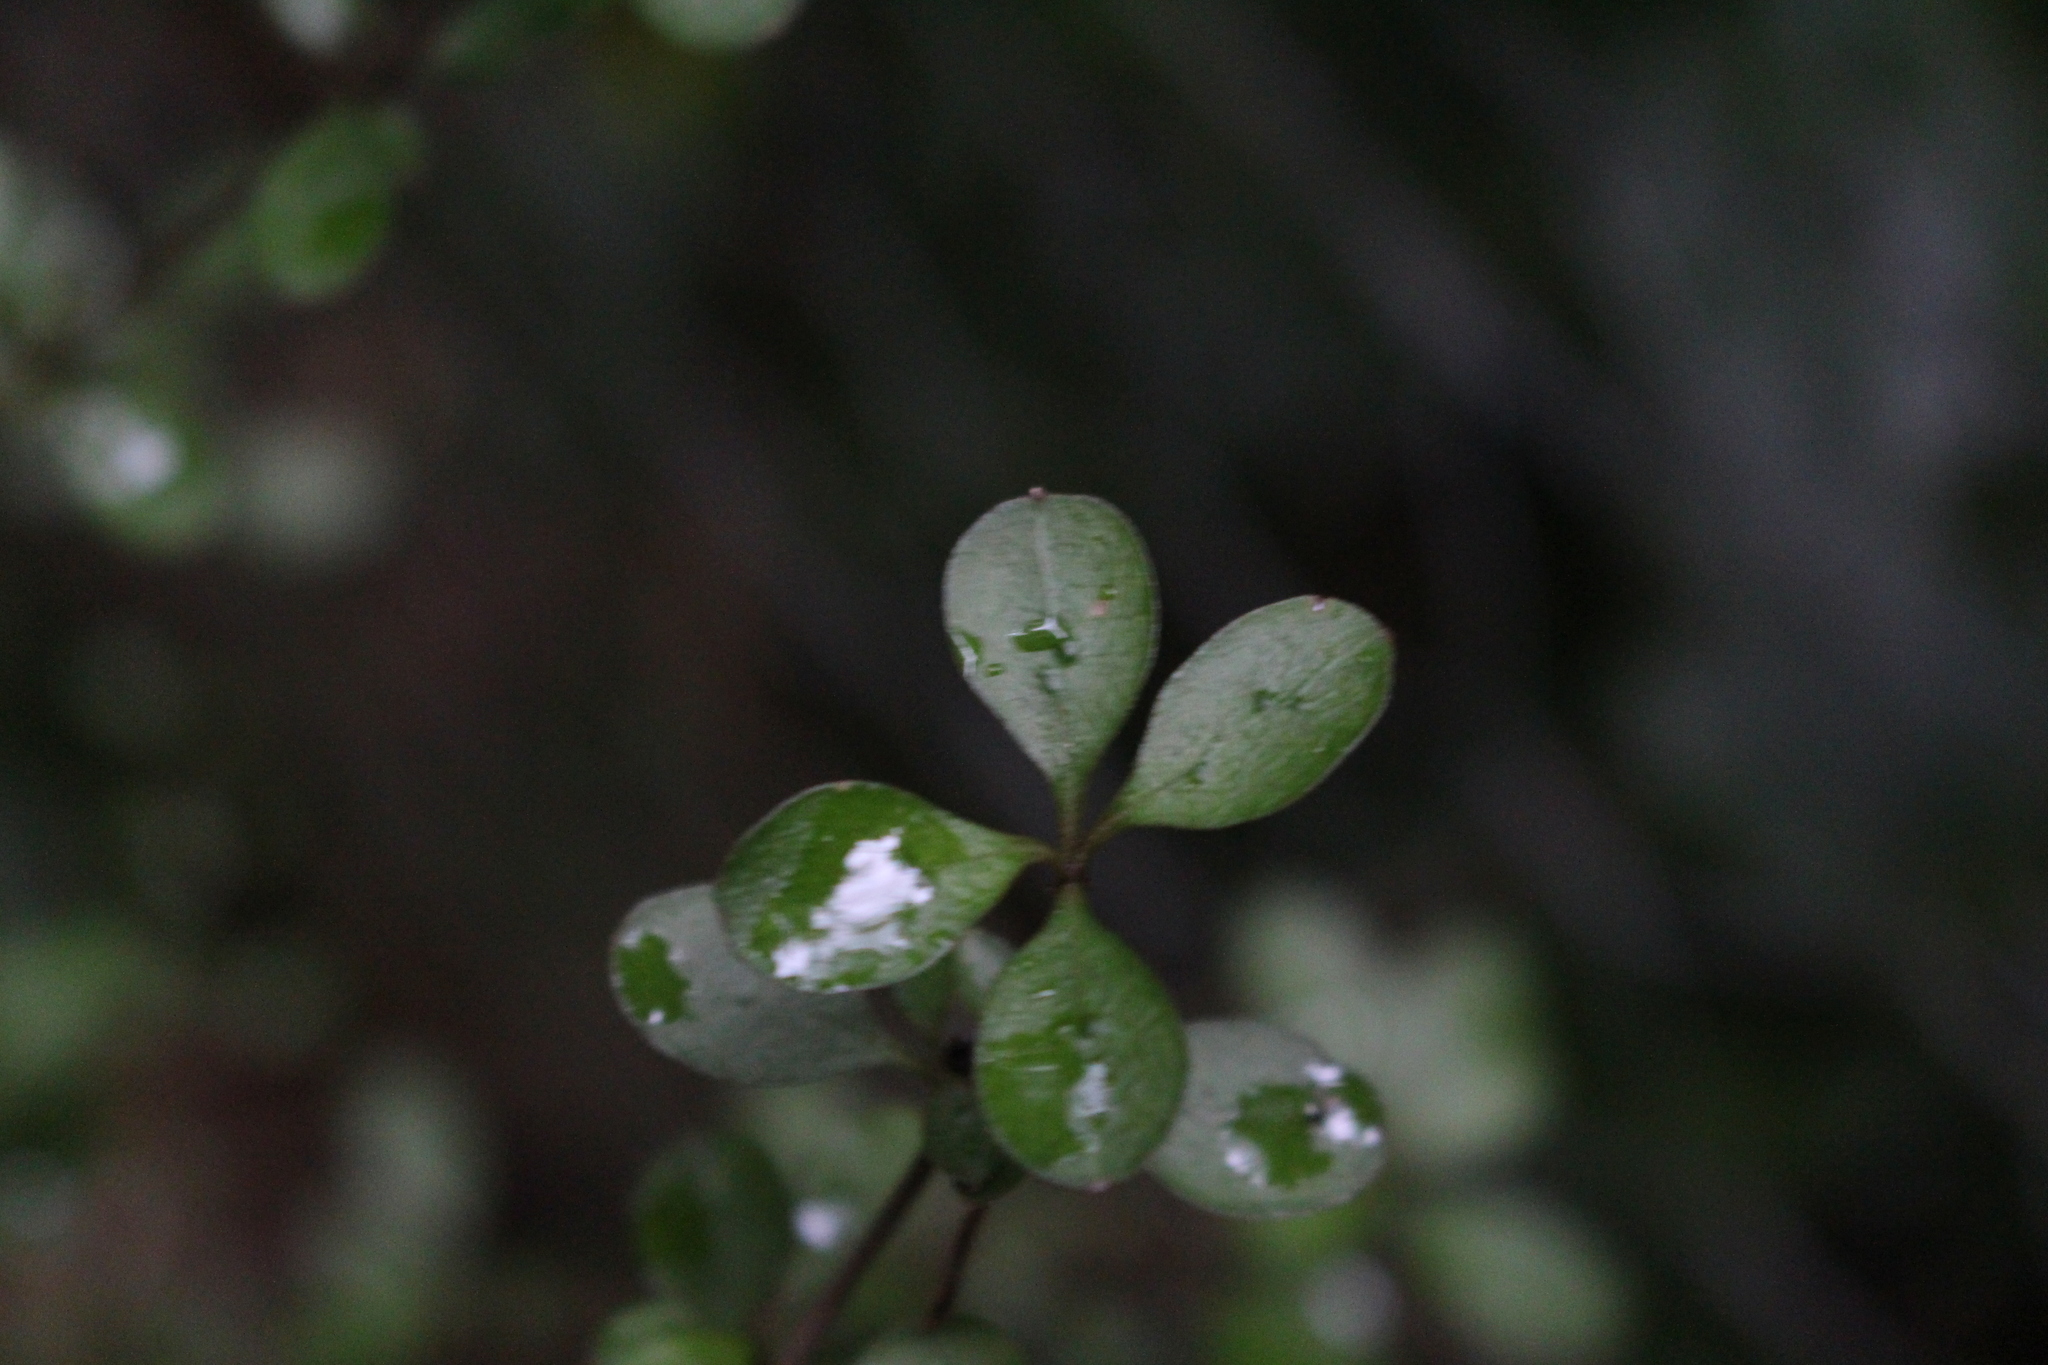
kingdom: Plantae
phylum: Tracheophyta
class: Magnoliopsida
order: Gentianales
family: Rubiaceae
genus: Coprosma
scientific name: Coprosma rigida
